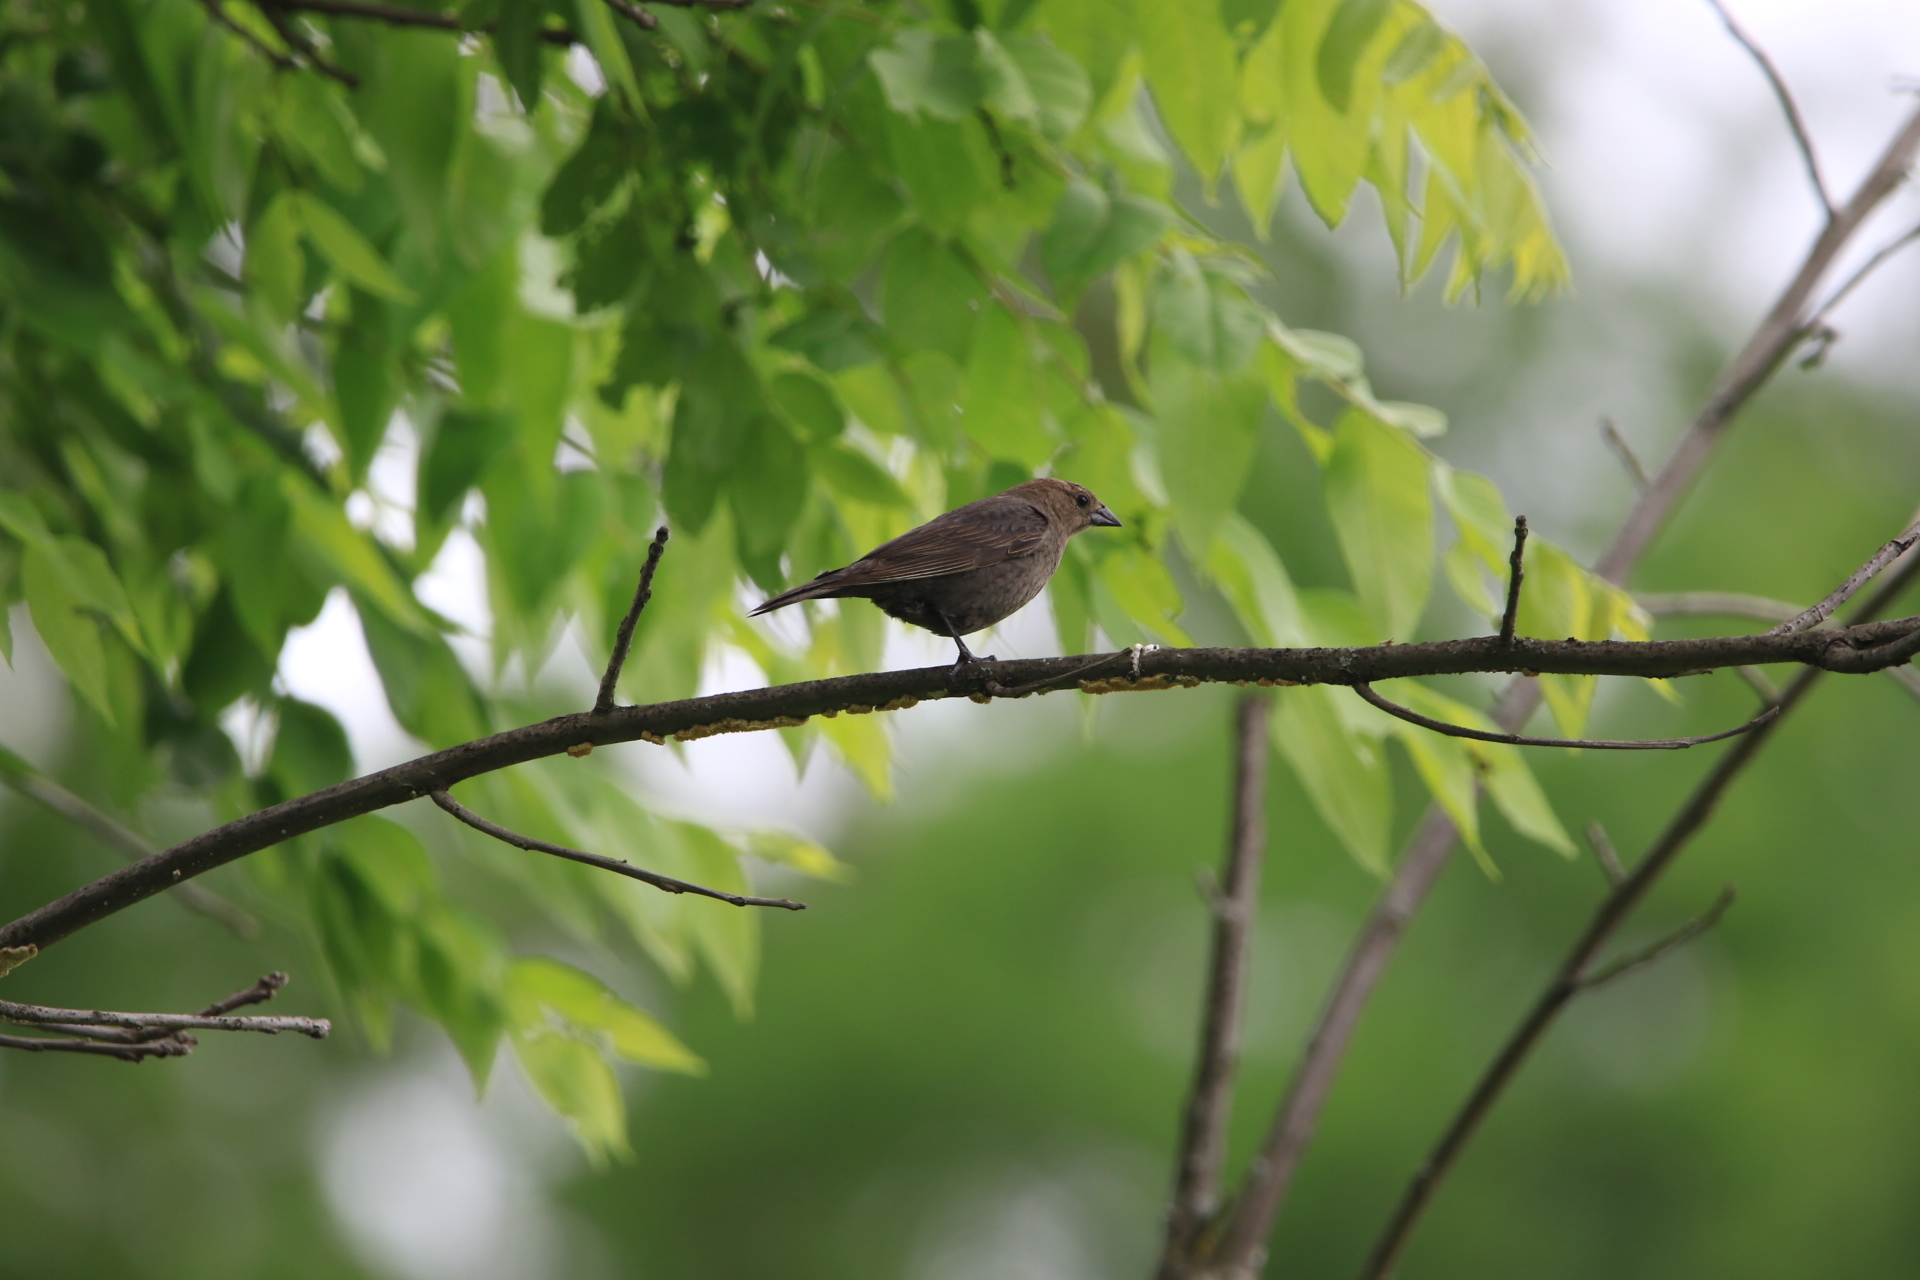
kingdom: Animalia
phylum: Chordata
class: Aves
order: Passeriformes
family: Icteridae
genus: Molothrus
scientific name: Molothrus ater
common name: Brown-headed cowbird
